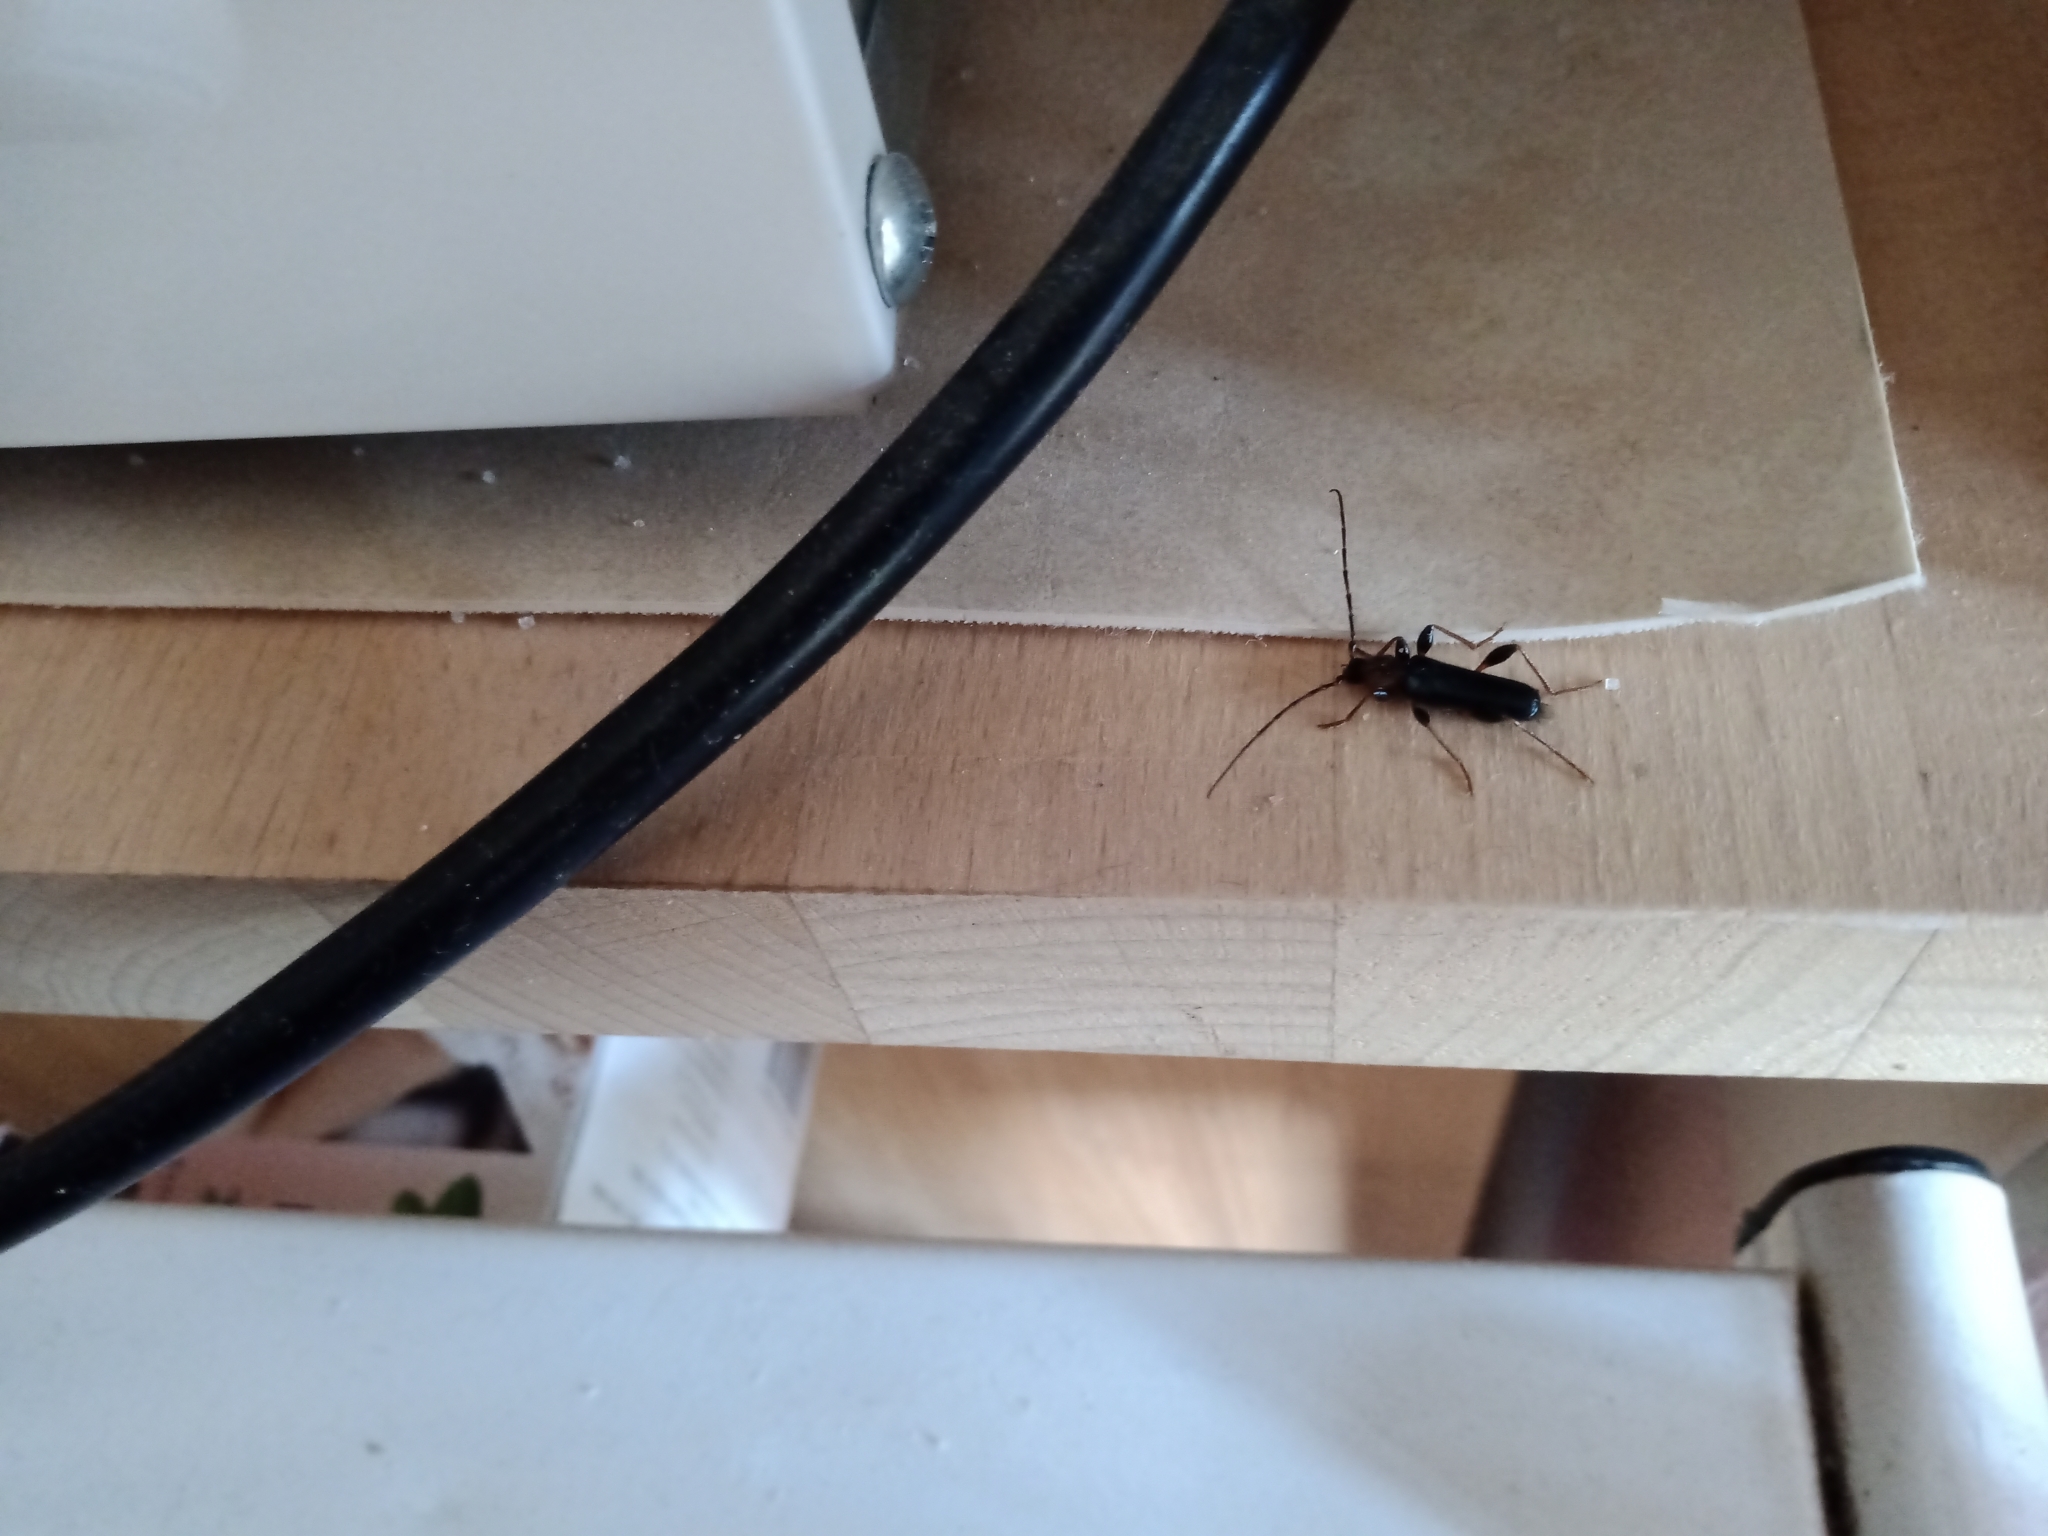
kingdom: Animalia
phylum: Arthropoda
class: Insecta
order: Coleoptera
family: Cerambycidae
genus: Phymatodes
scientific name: Phymatodes testaceus
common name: Long-horned beetle
